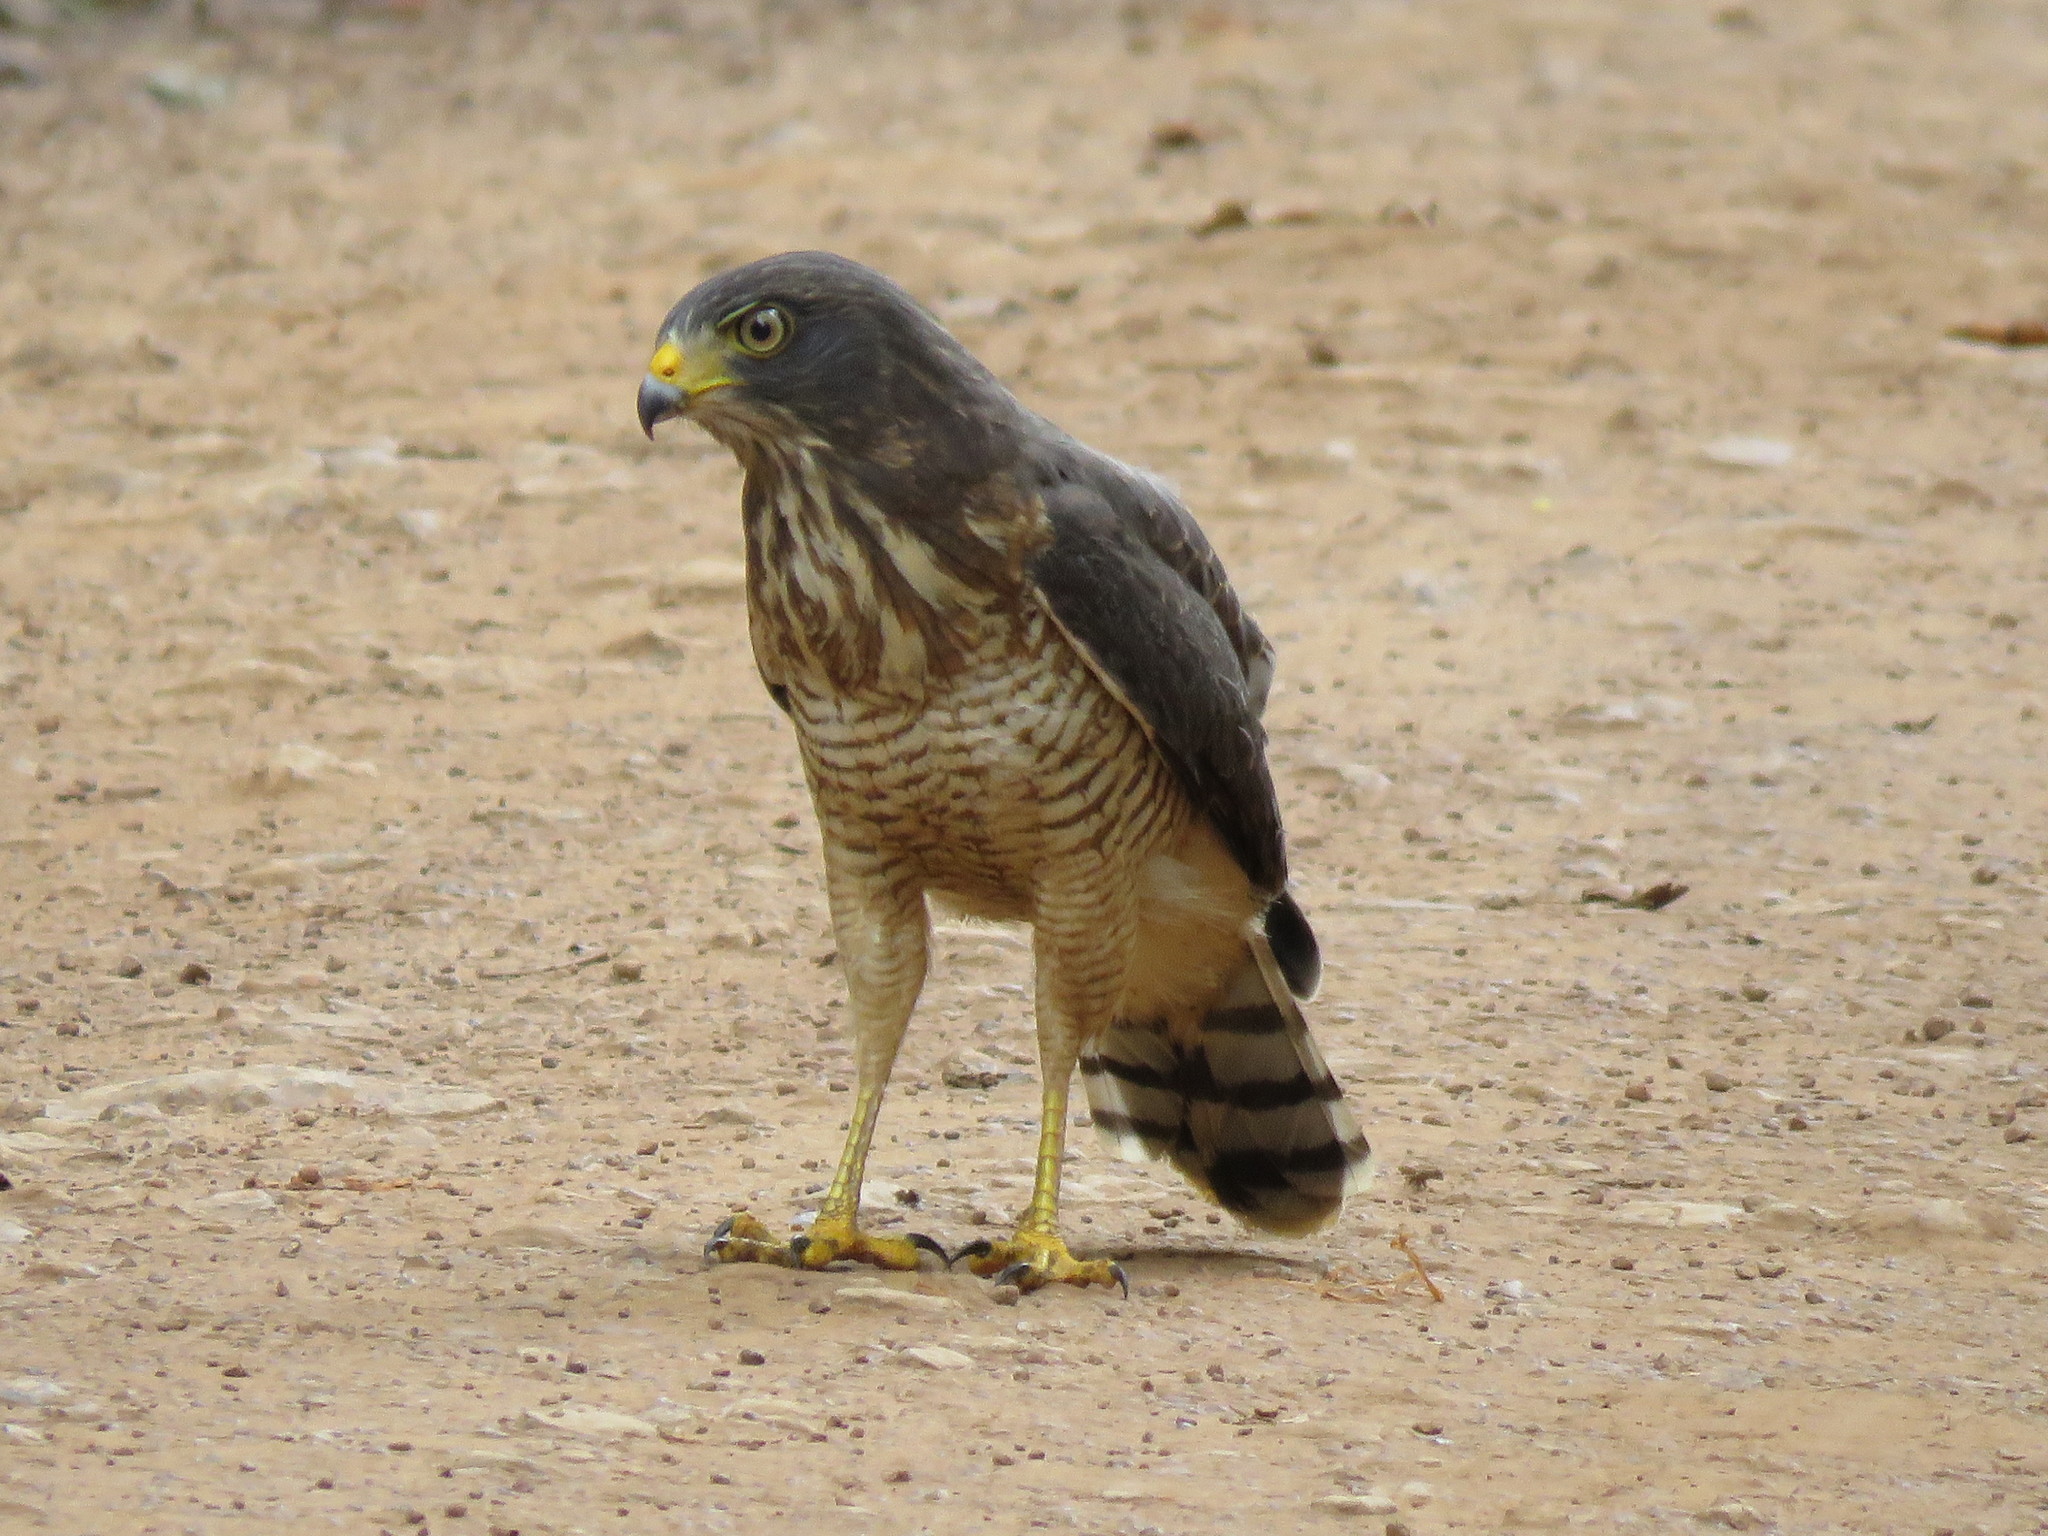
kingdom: Animalia
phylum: Chordata
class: Aves
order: Accipitriformes
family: Accipitridae
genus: Rupornis
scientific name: Rupornis magnirostris
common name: Roadside hawk
